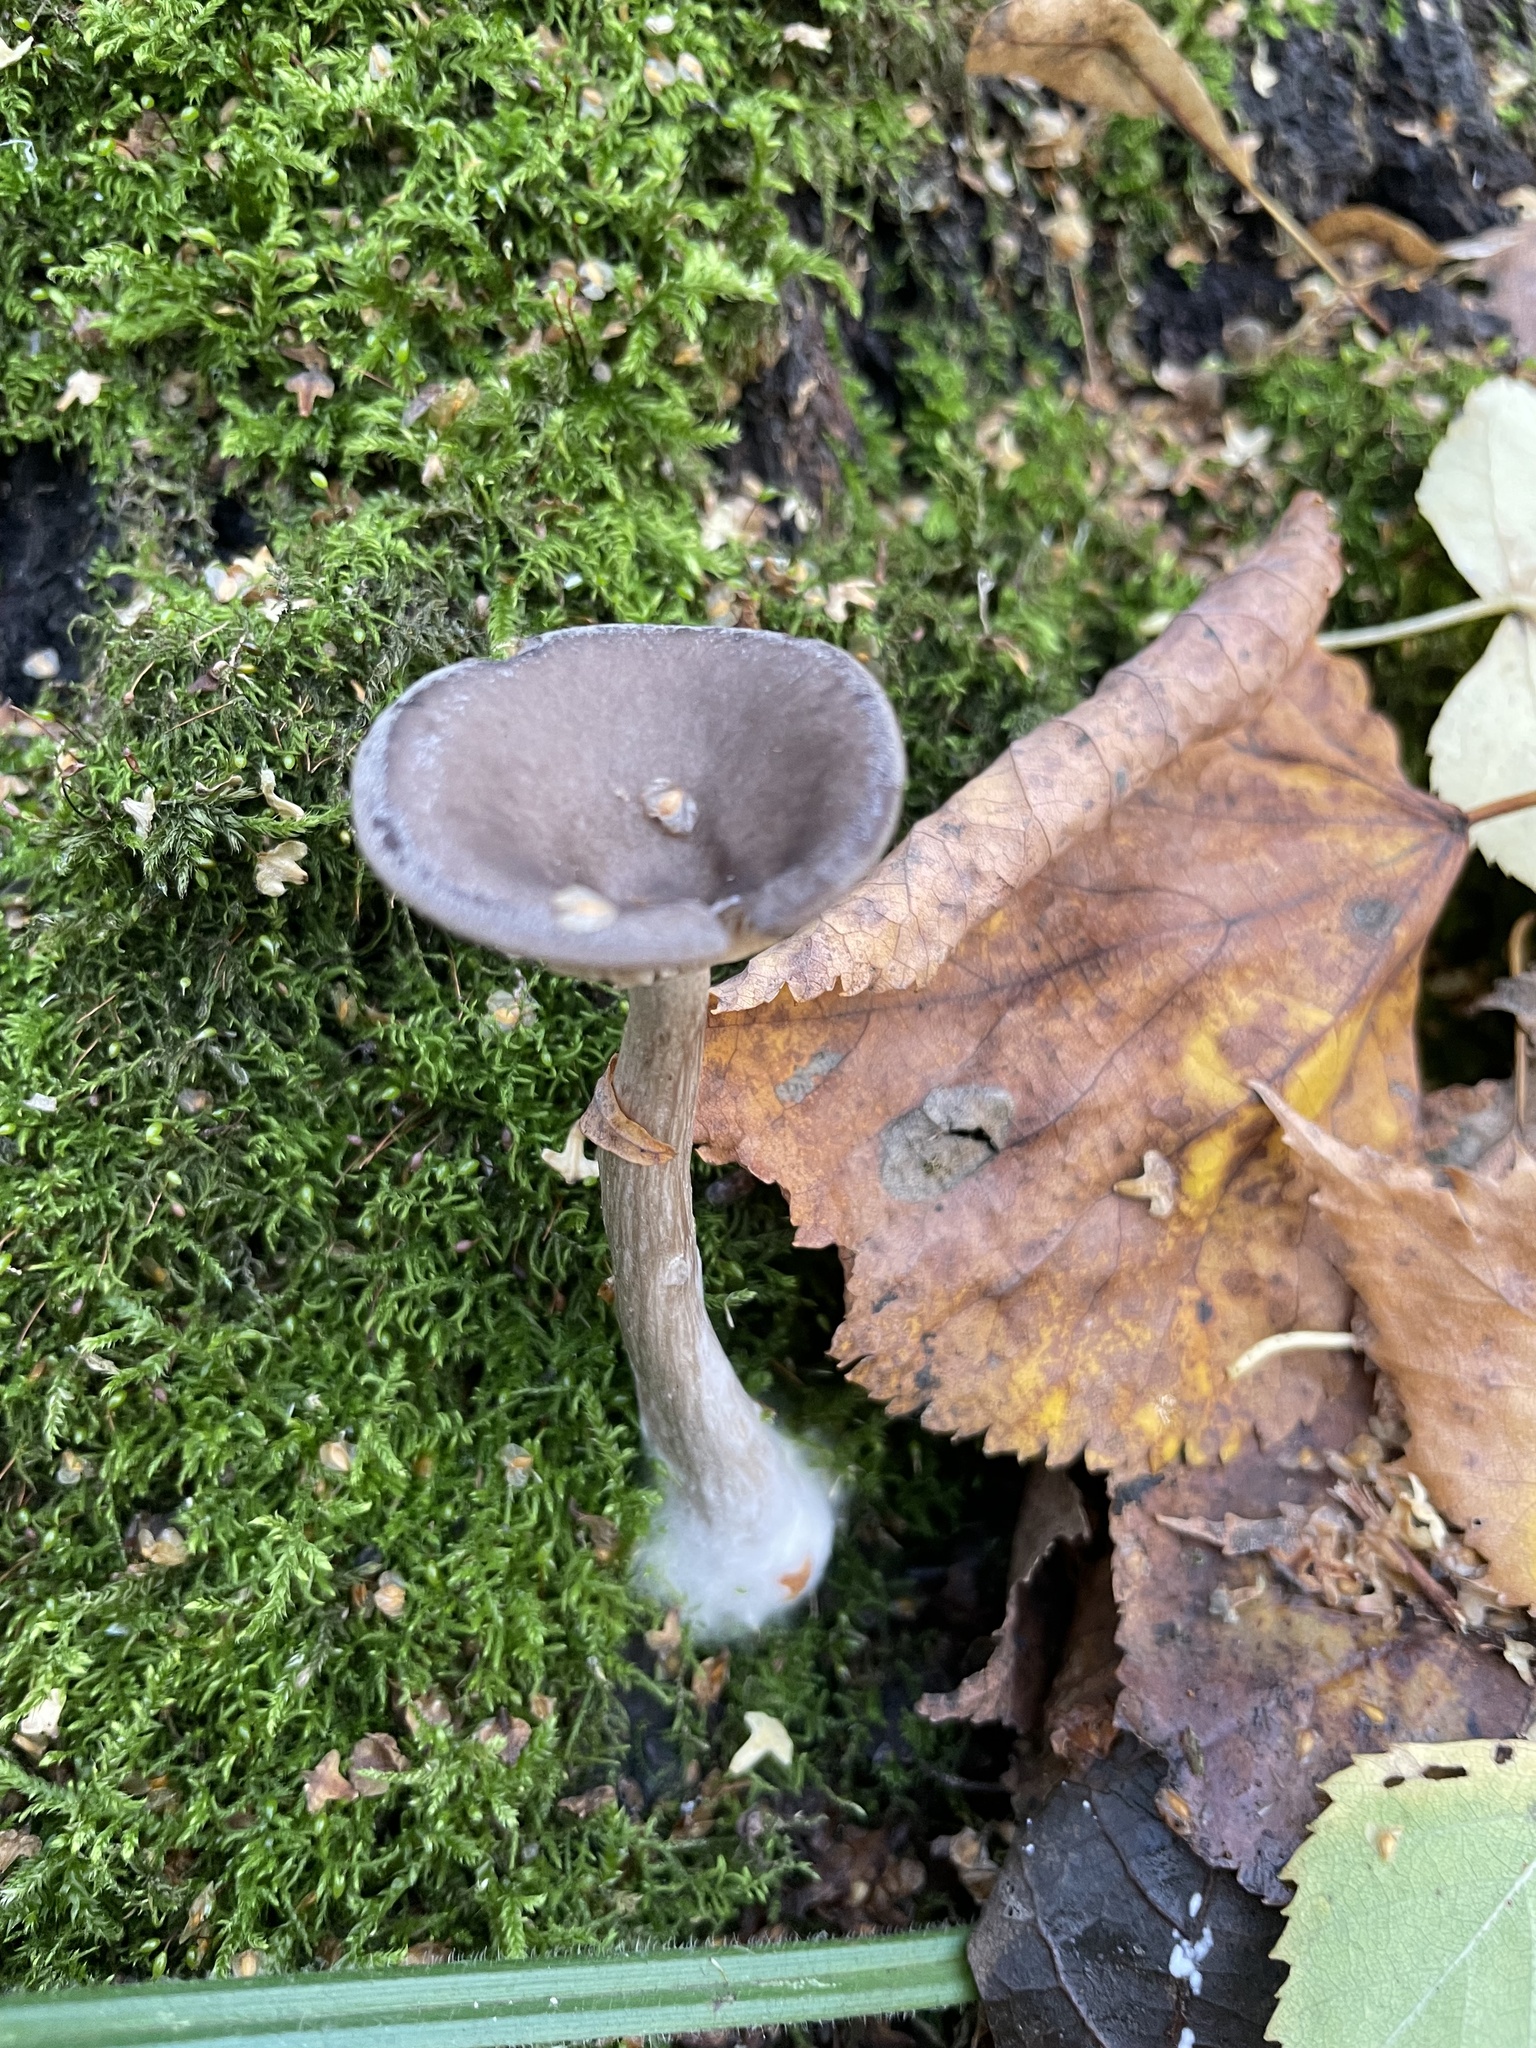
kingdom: Fungi
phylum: Basidiomycota
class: Agaricomycetes
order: Agaricales
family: Pseudoclitocybaceae
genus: Pseudoclitocybe
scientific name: Pseudoclitocybe cyathiformis
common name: Goblet
